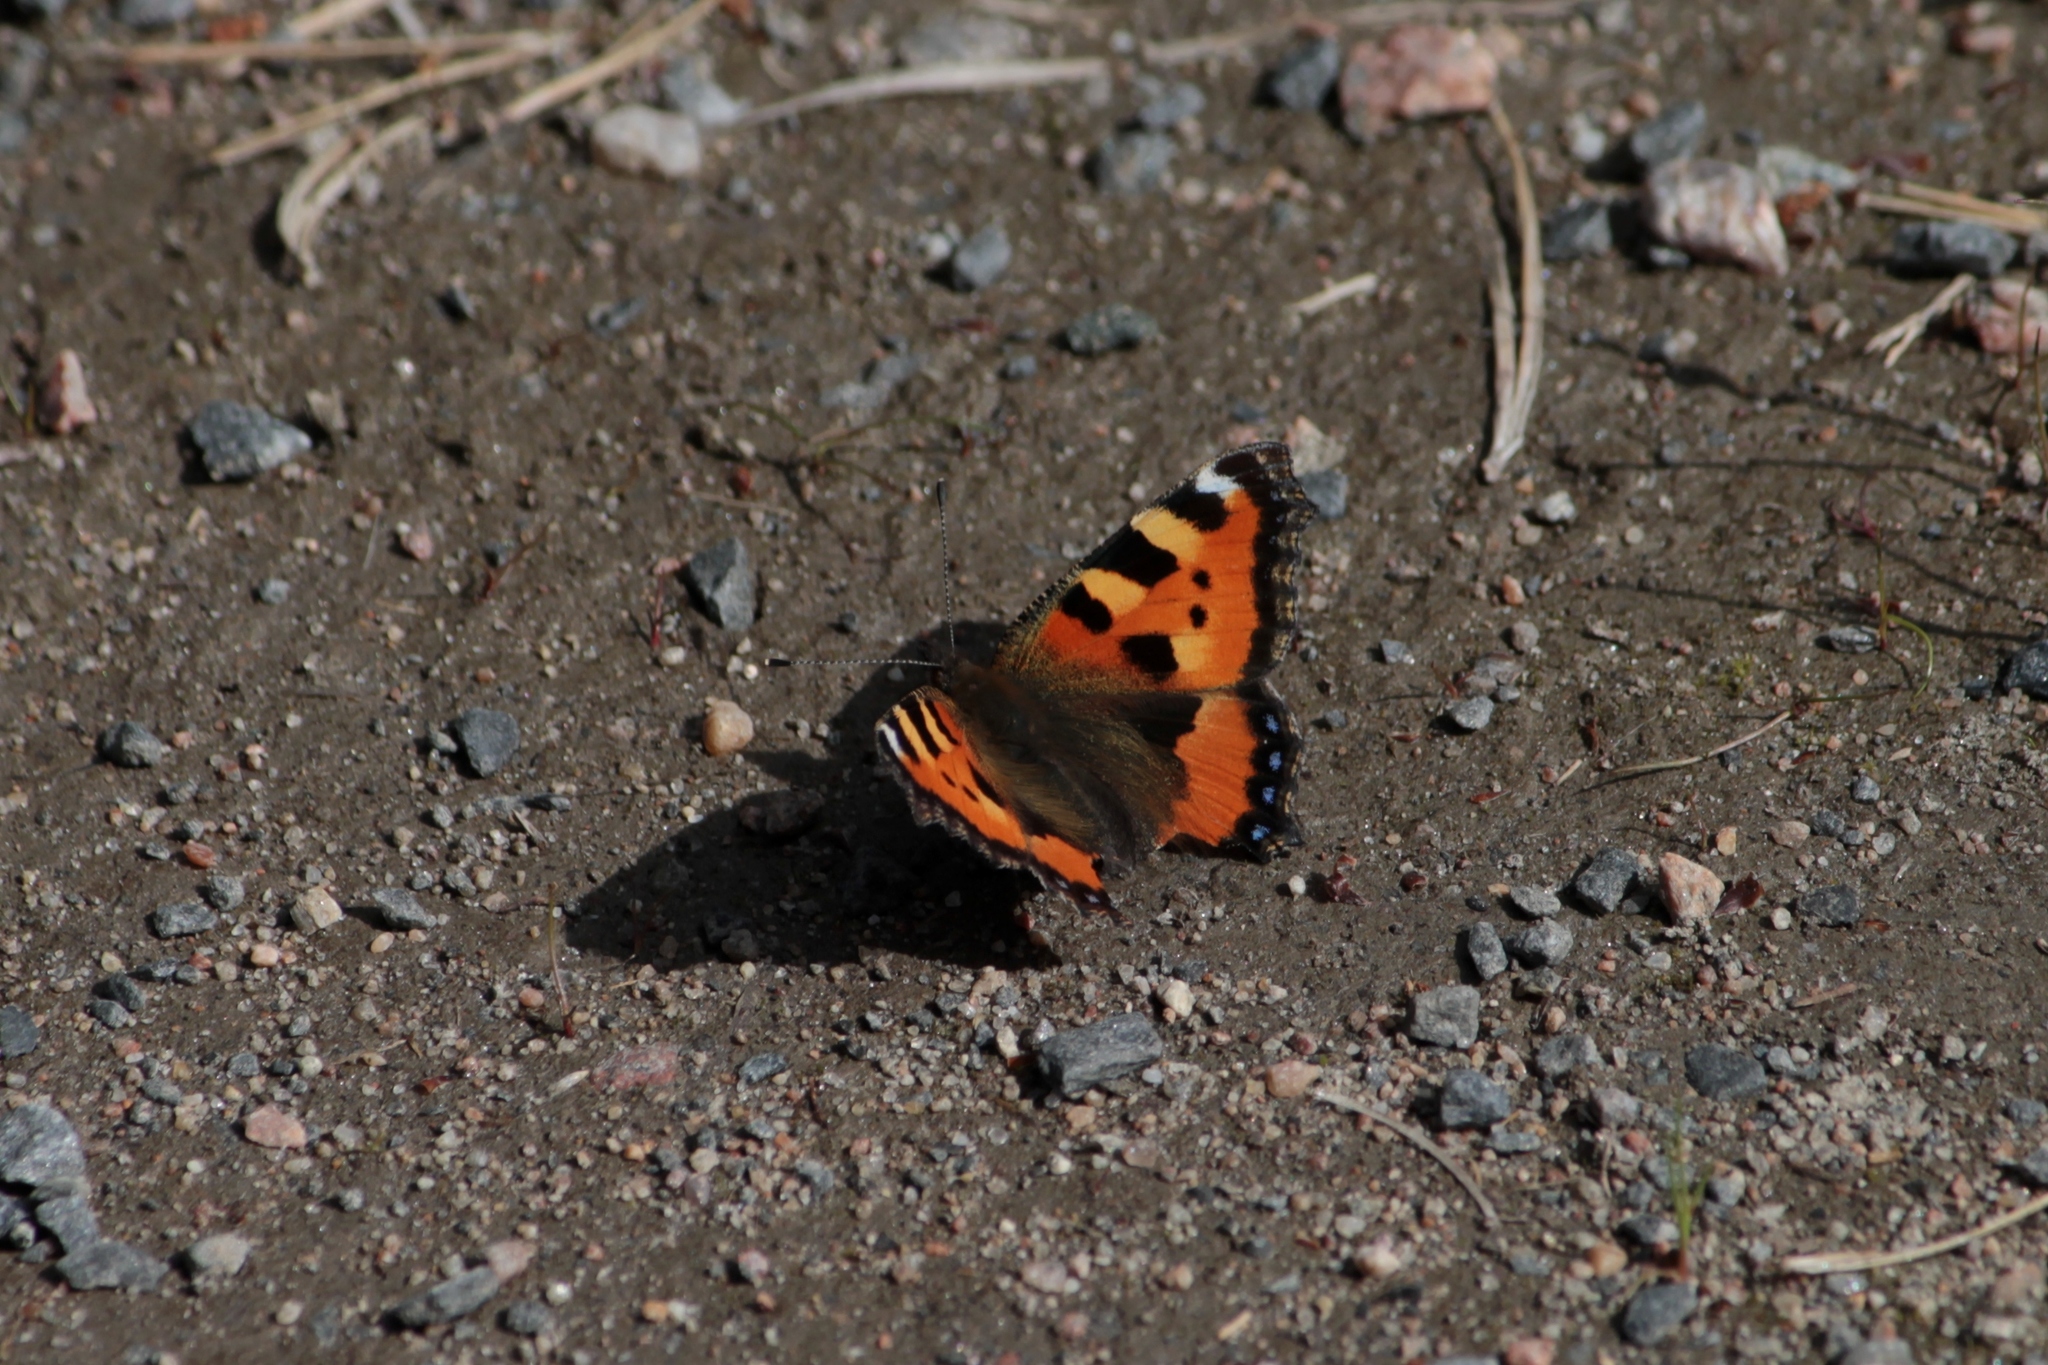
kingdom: Animalia
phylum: Arthropoda
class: Insecta
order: Lepidoptera
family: Nymphalidae
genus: Aglais
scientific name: Aglais urticae
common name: Small tortoiseshell
